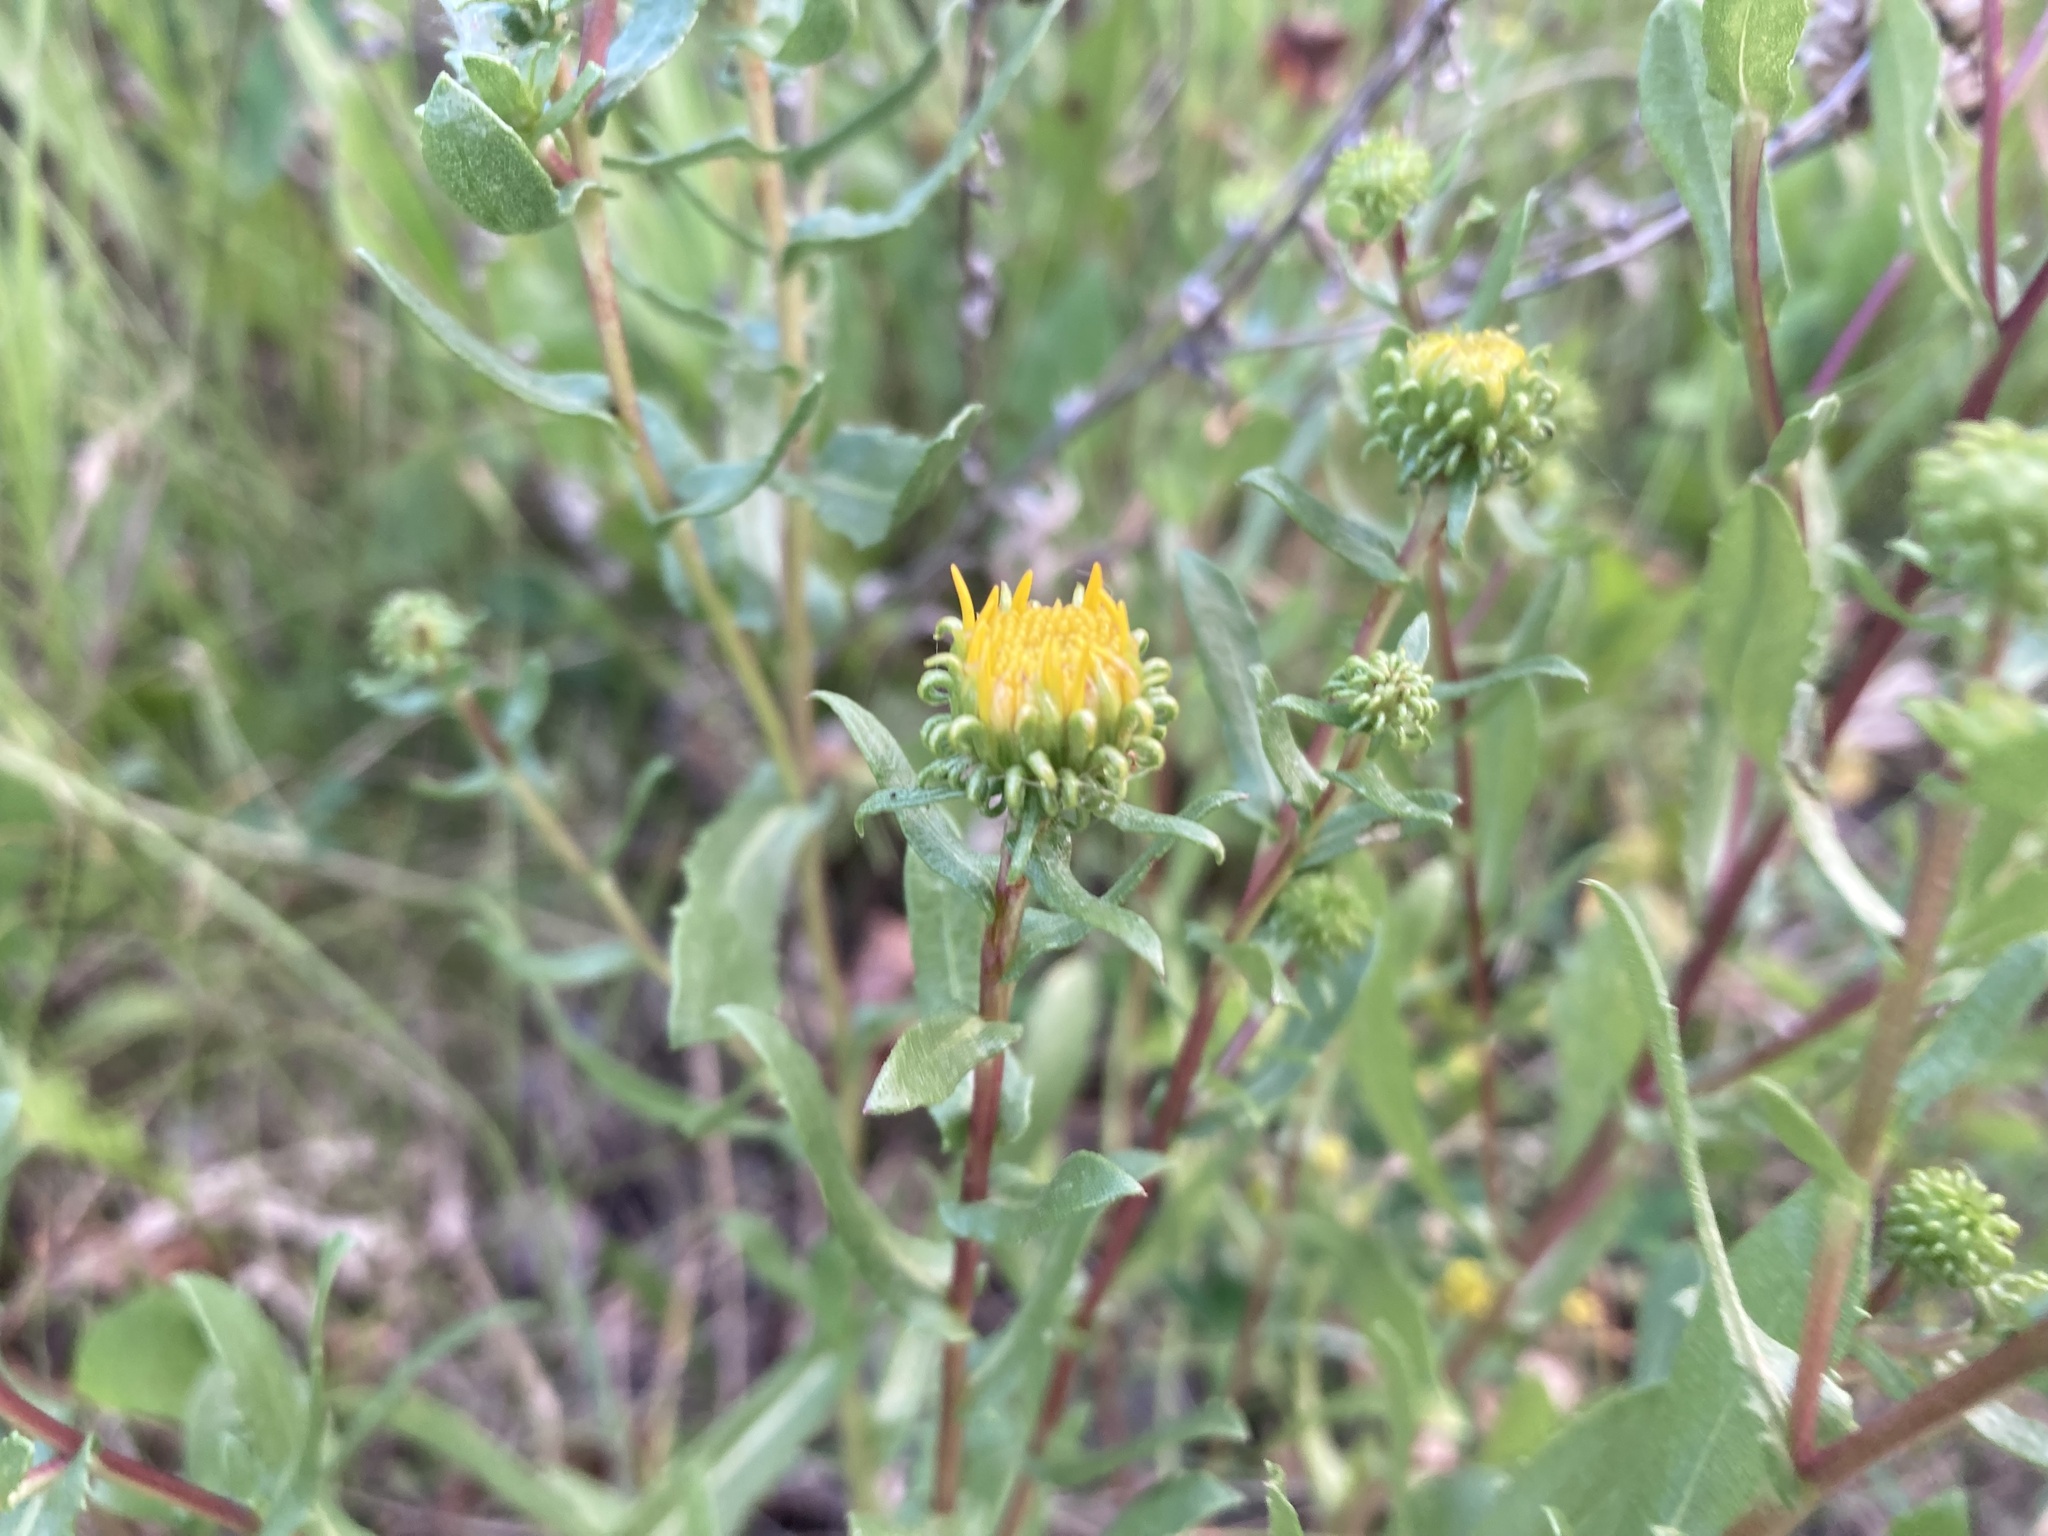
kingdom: Plantae
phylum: Tracheophyta
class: Magnoliopsida
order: Asterales
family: Asteraceae
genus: Grindelia
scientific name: Grindelia squarrosa
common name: Curly-cup gumweed
